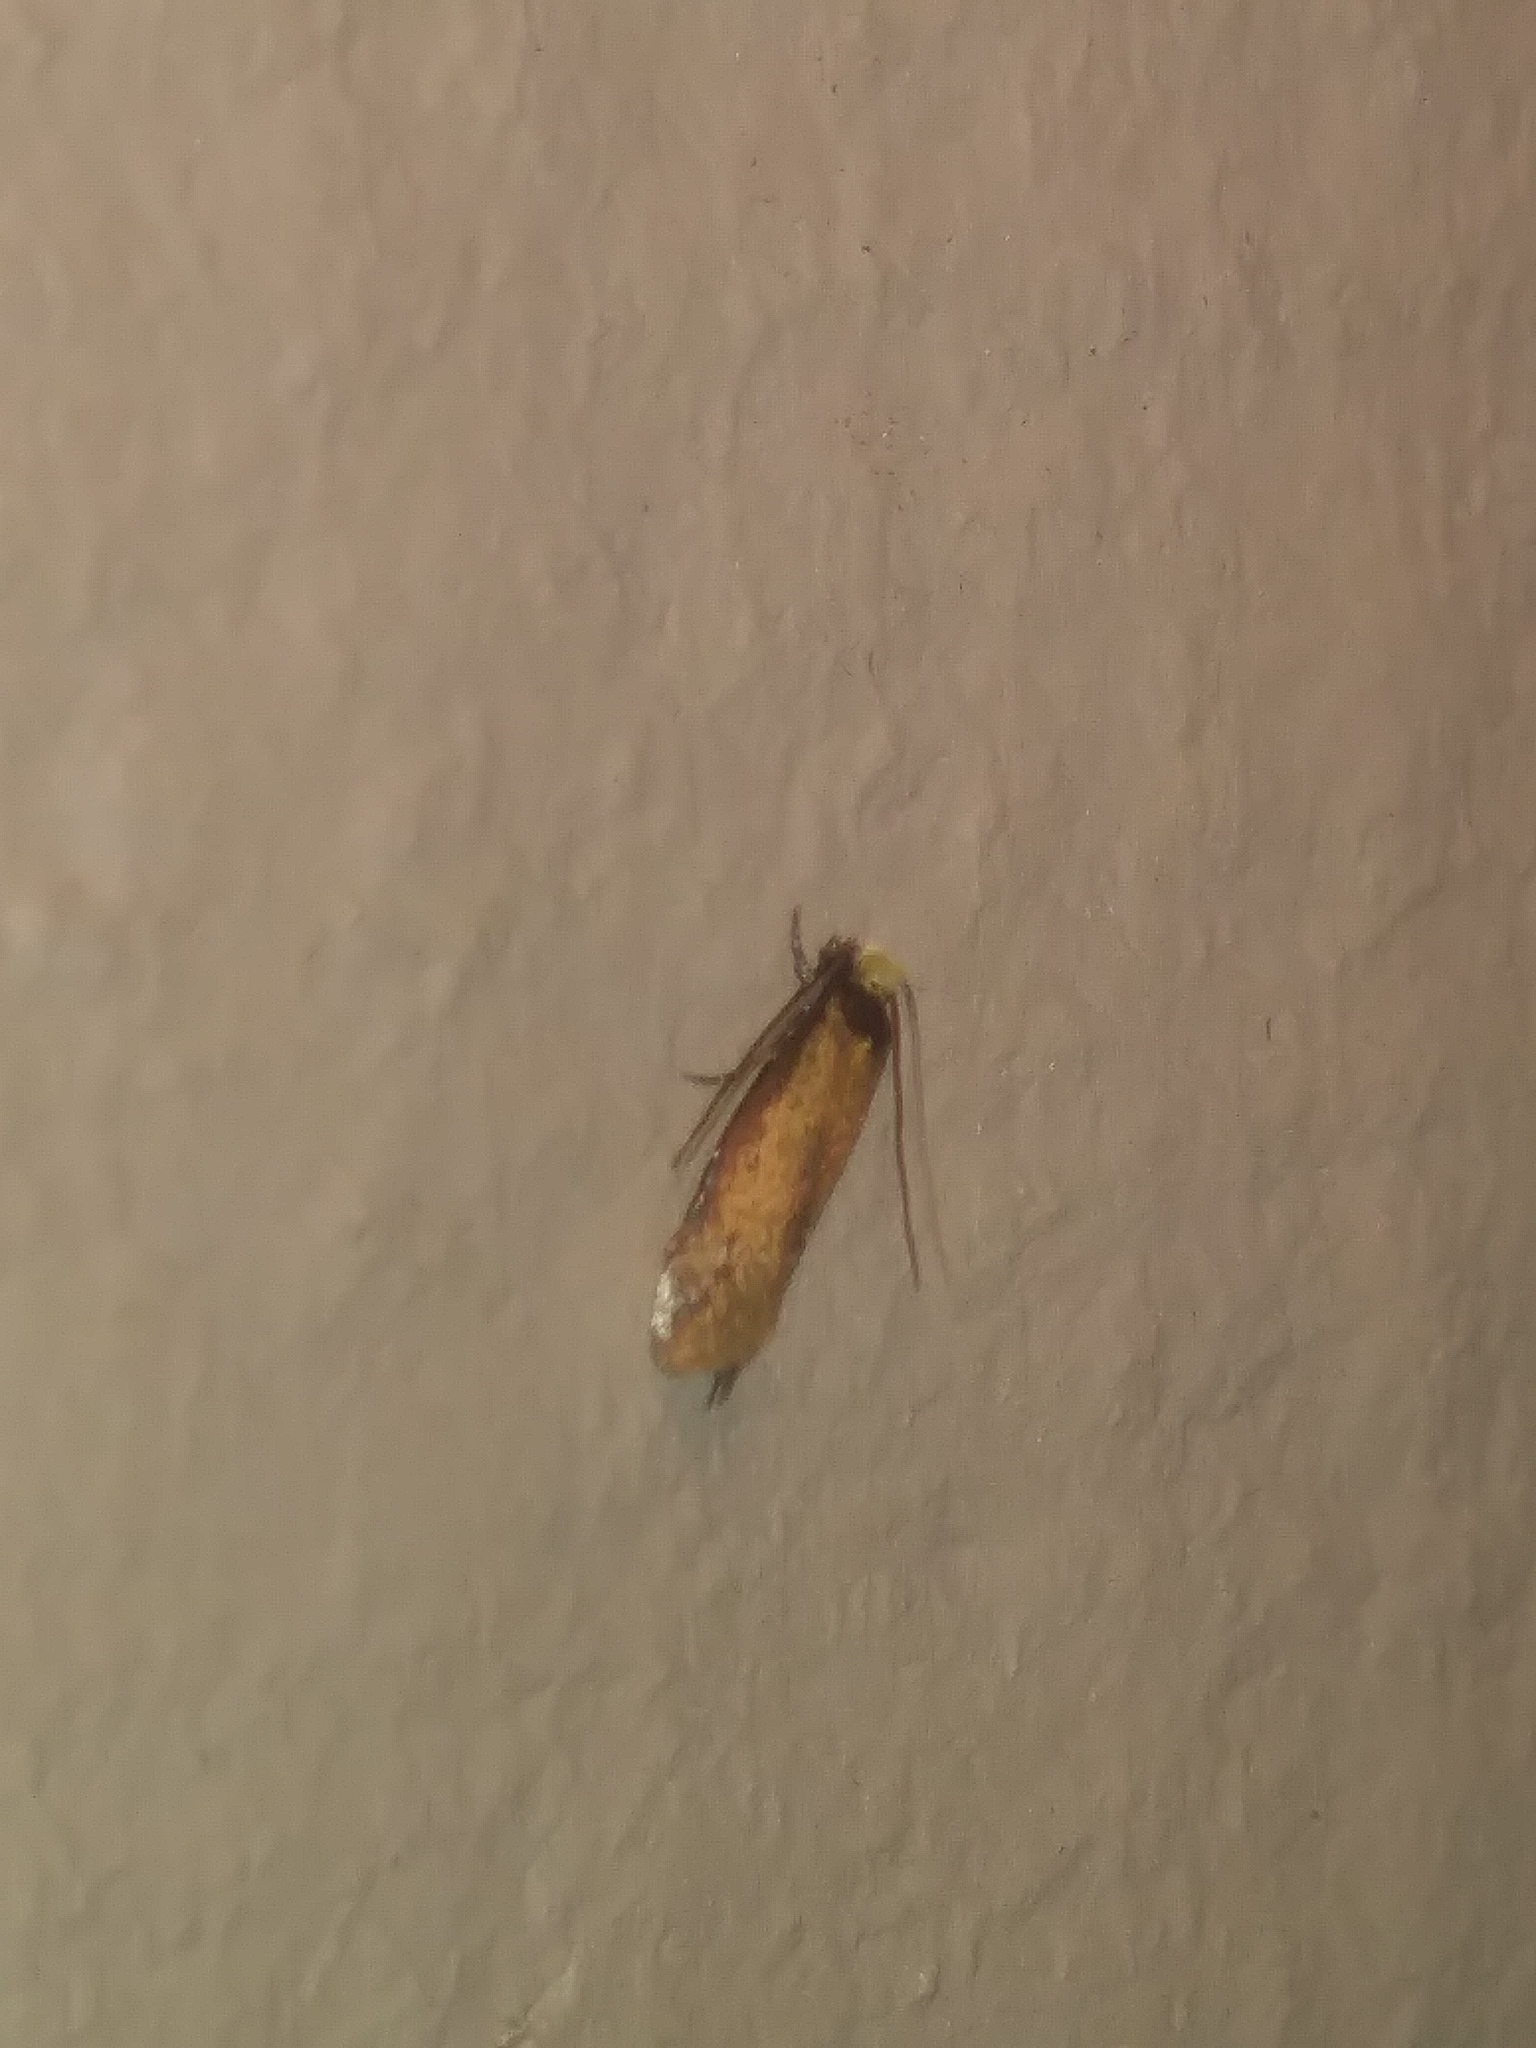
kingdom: Animalia
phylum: Arthropoda
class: Insecta
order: Lepidoptera
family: Meessiidae
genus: Homostinea
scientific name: Homostinea curviliniella
